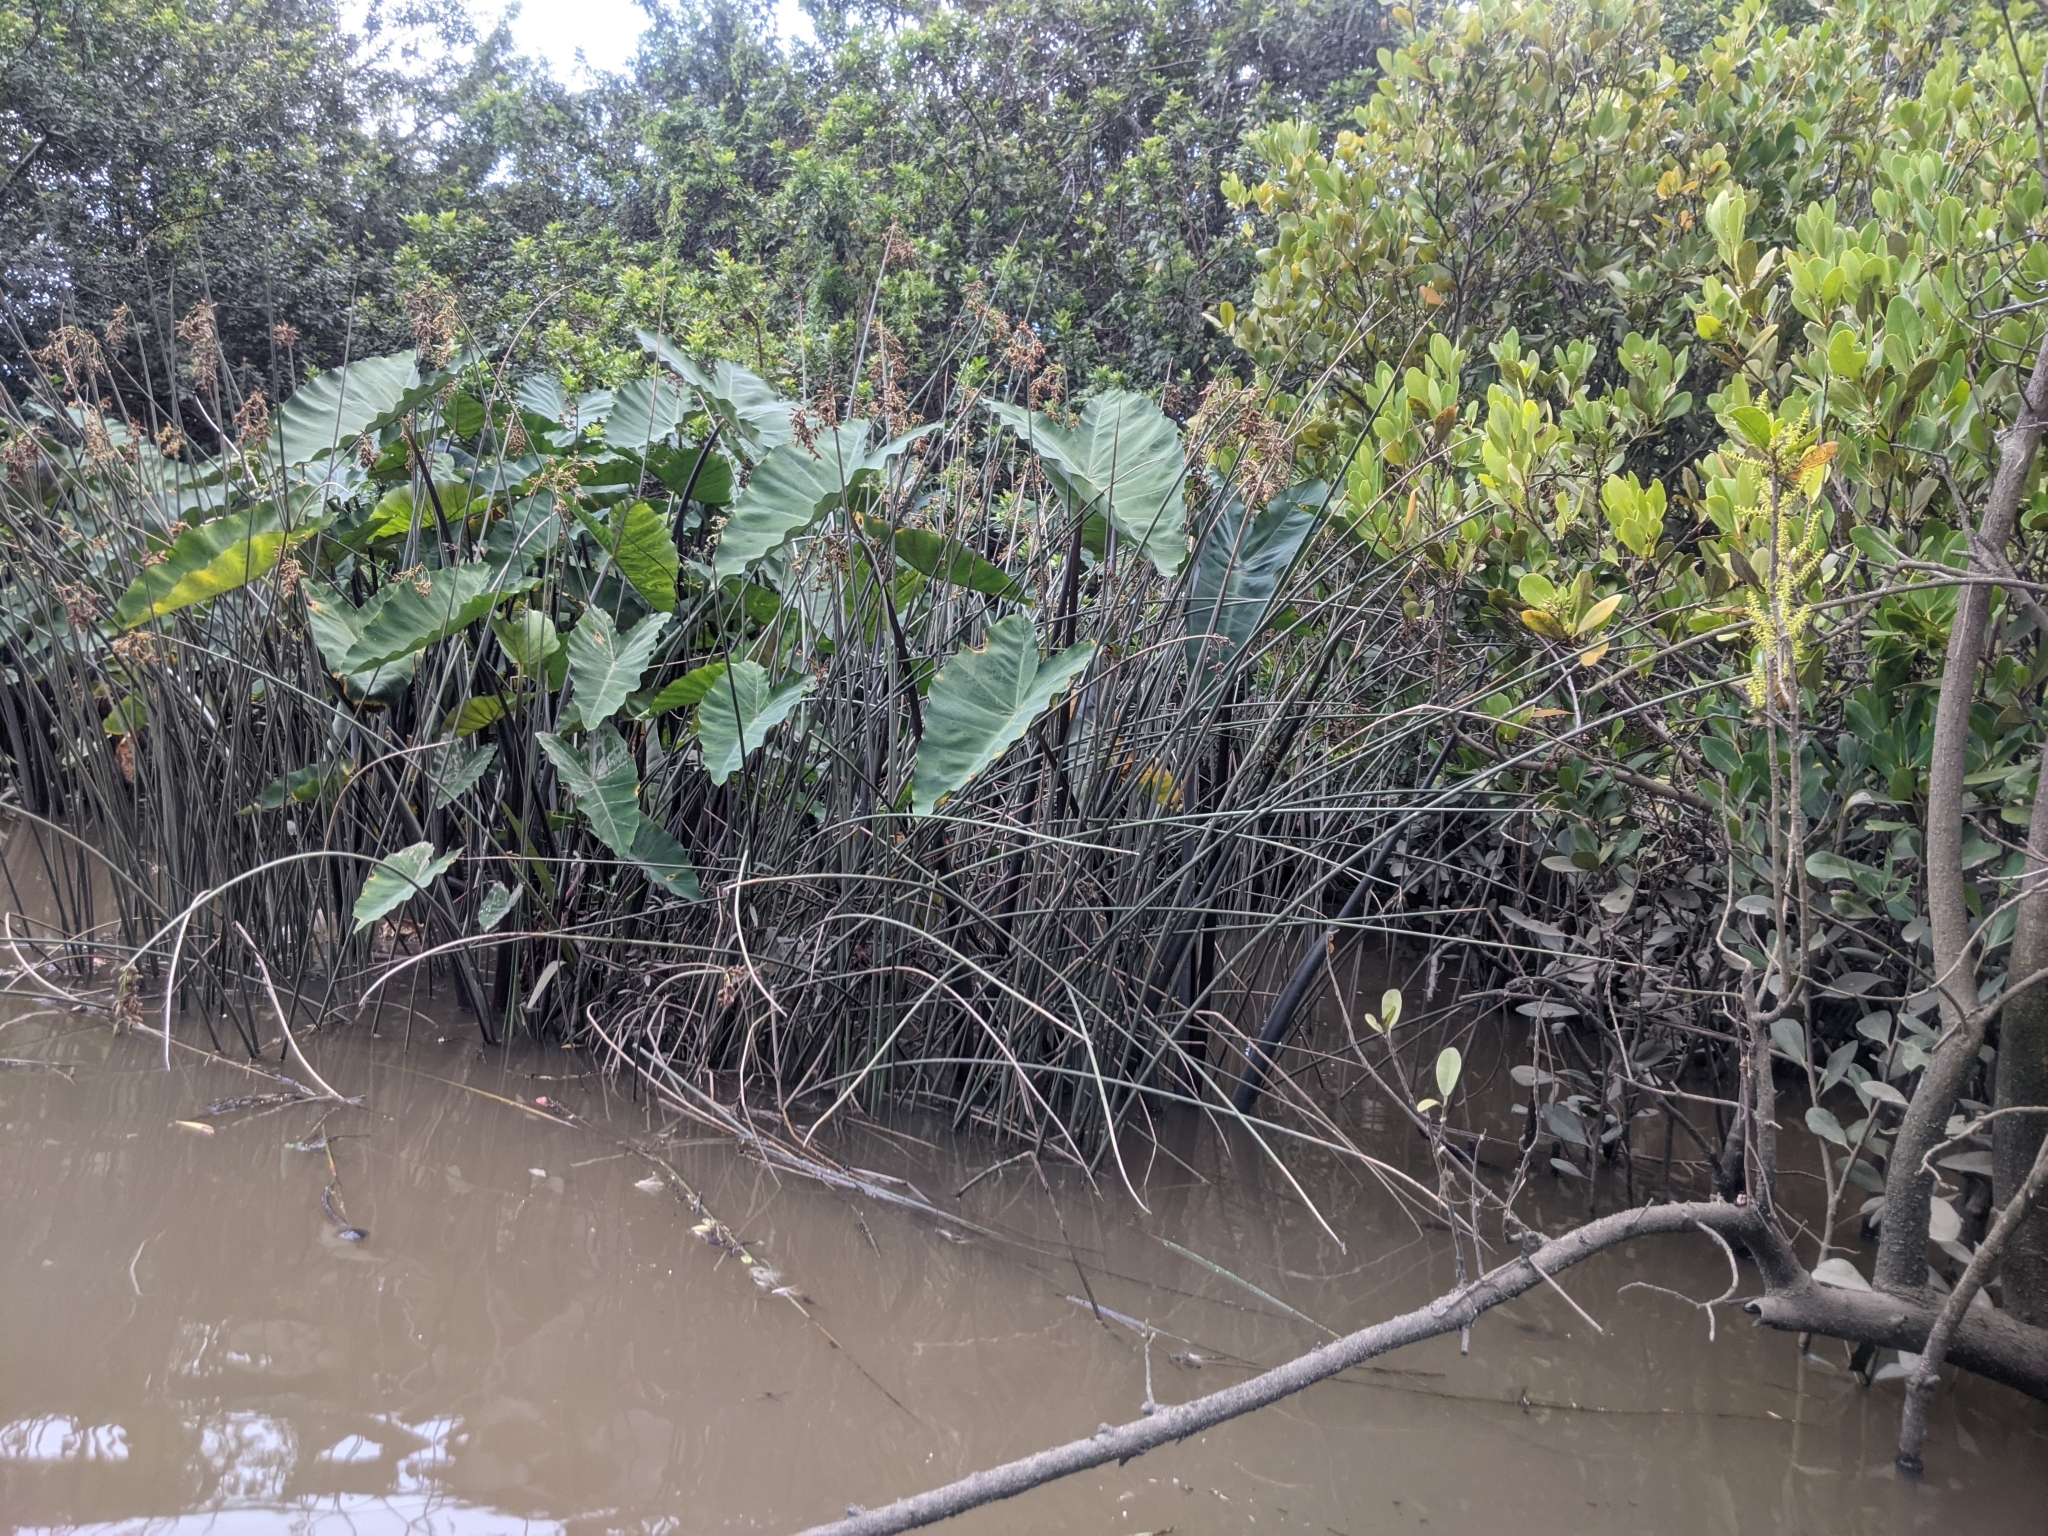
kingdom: Plantae
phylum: Tracheophyta
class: Liliopsida
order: Alismatales
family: Araceae
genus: Colocasia
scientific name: Colocasia esculenta
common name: Taro
